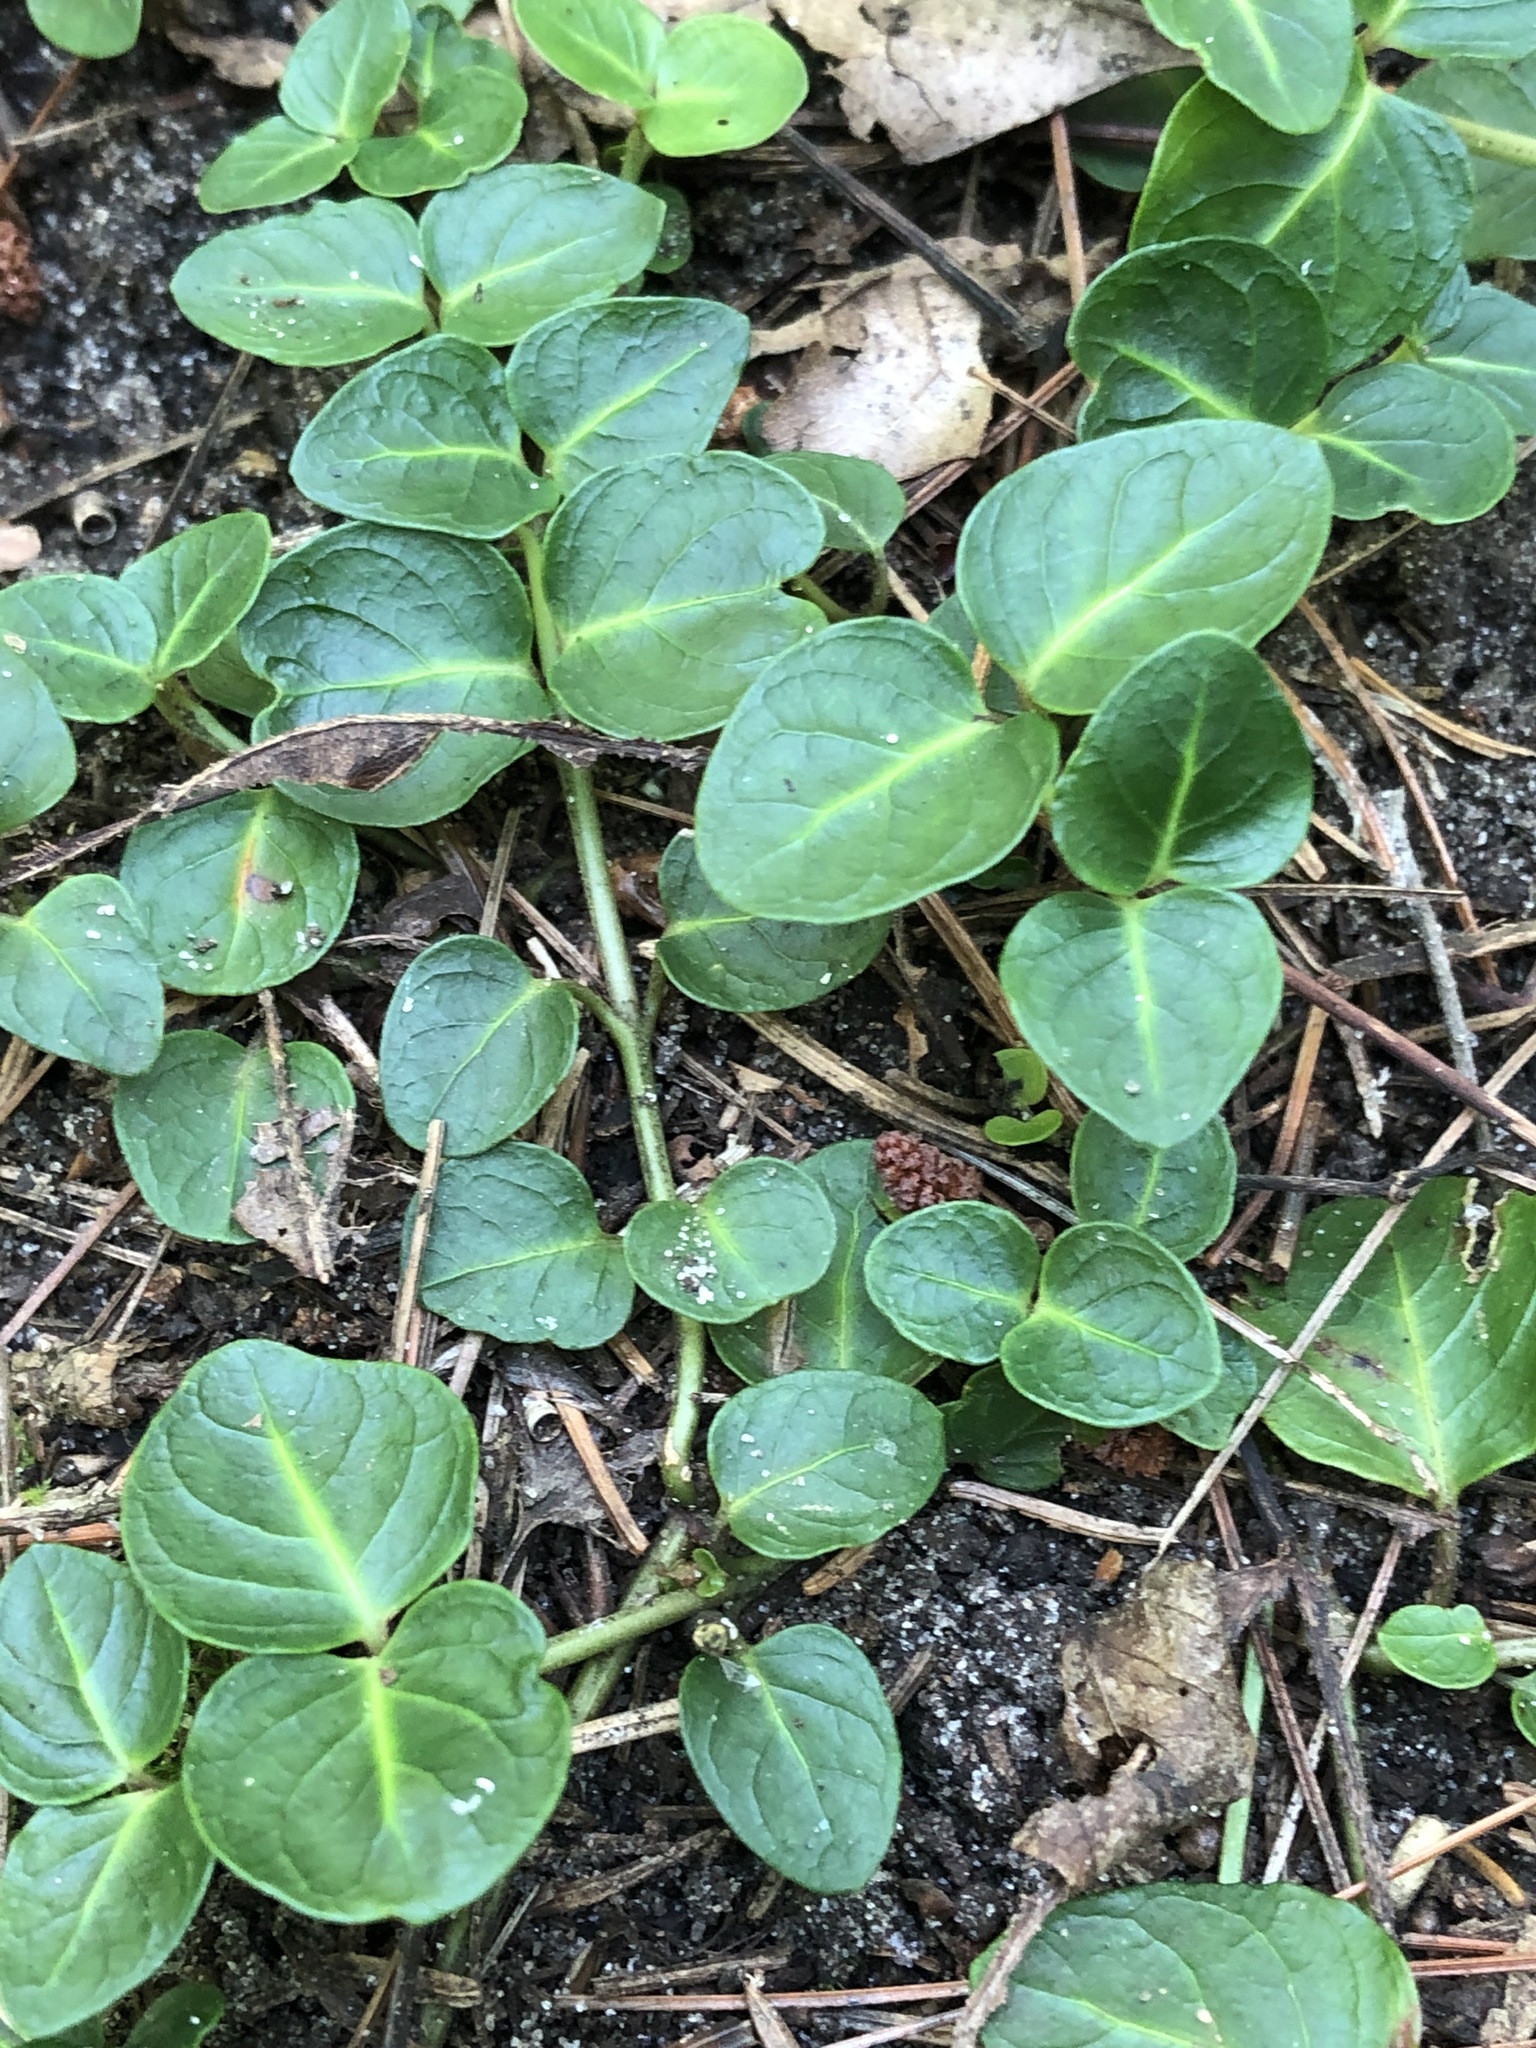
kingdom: Plantae
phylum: Tracheophyta
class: Magnoliopsida
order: Gentianales
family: Rubiaceae
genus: Mitchella
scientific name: Mitchella repens
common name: Partridge-berry
